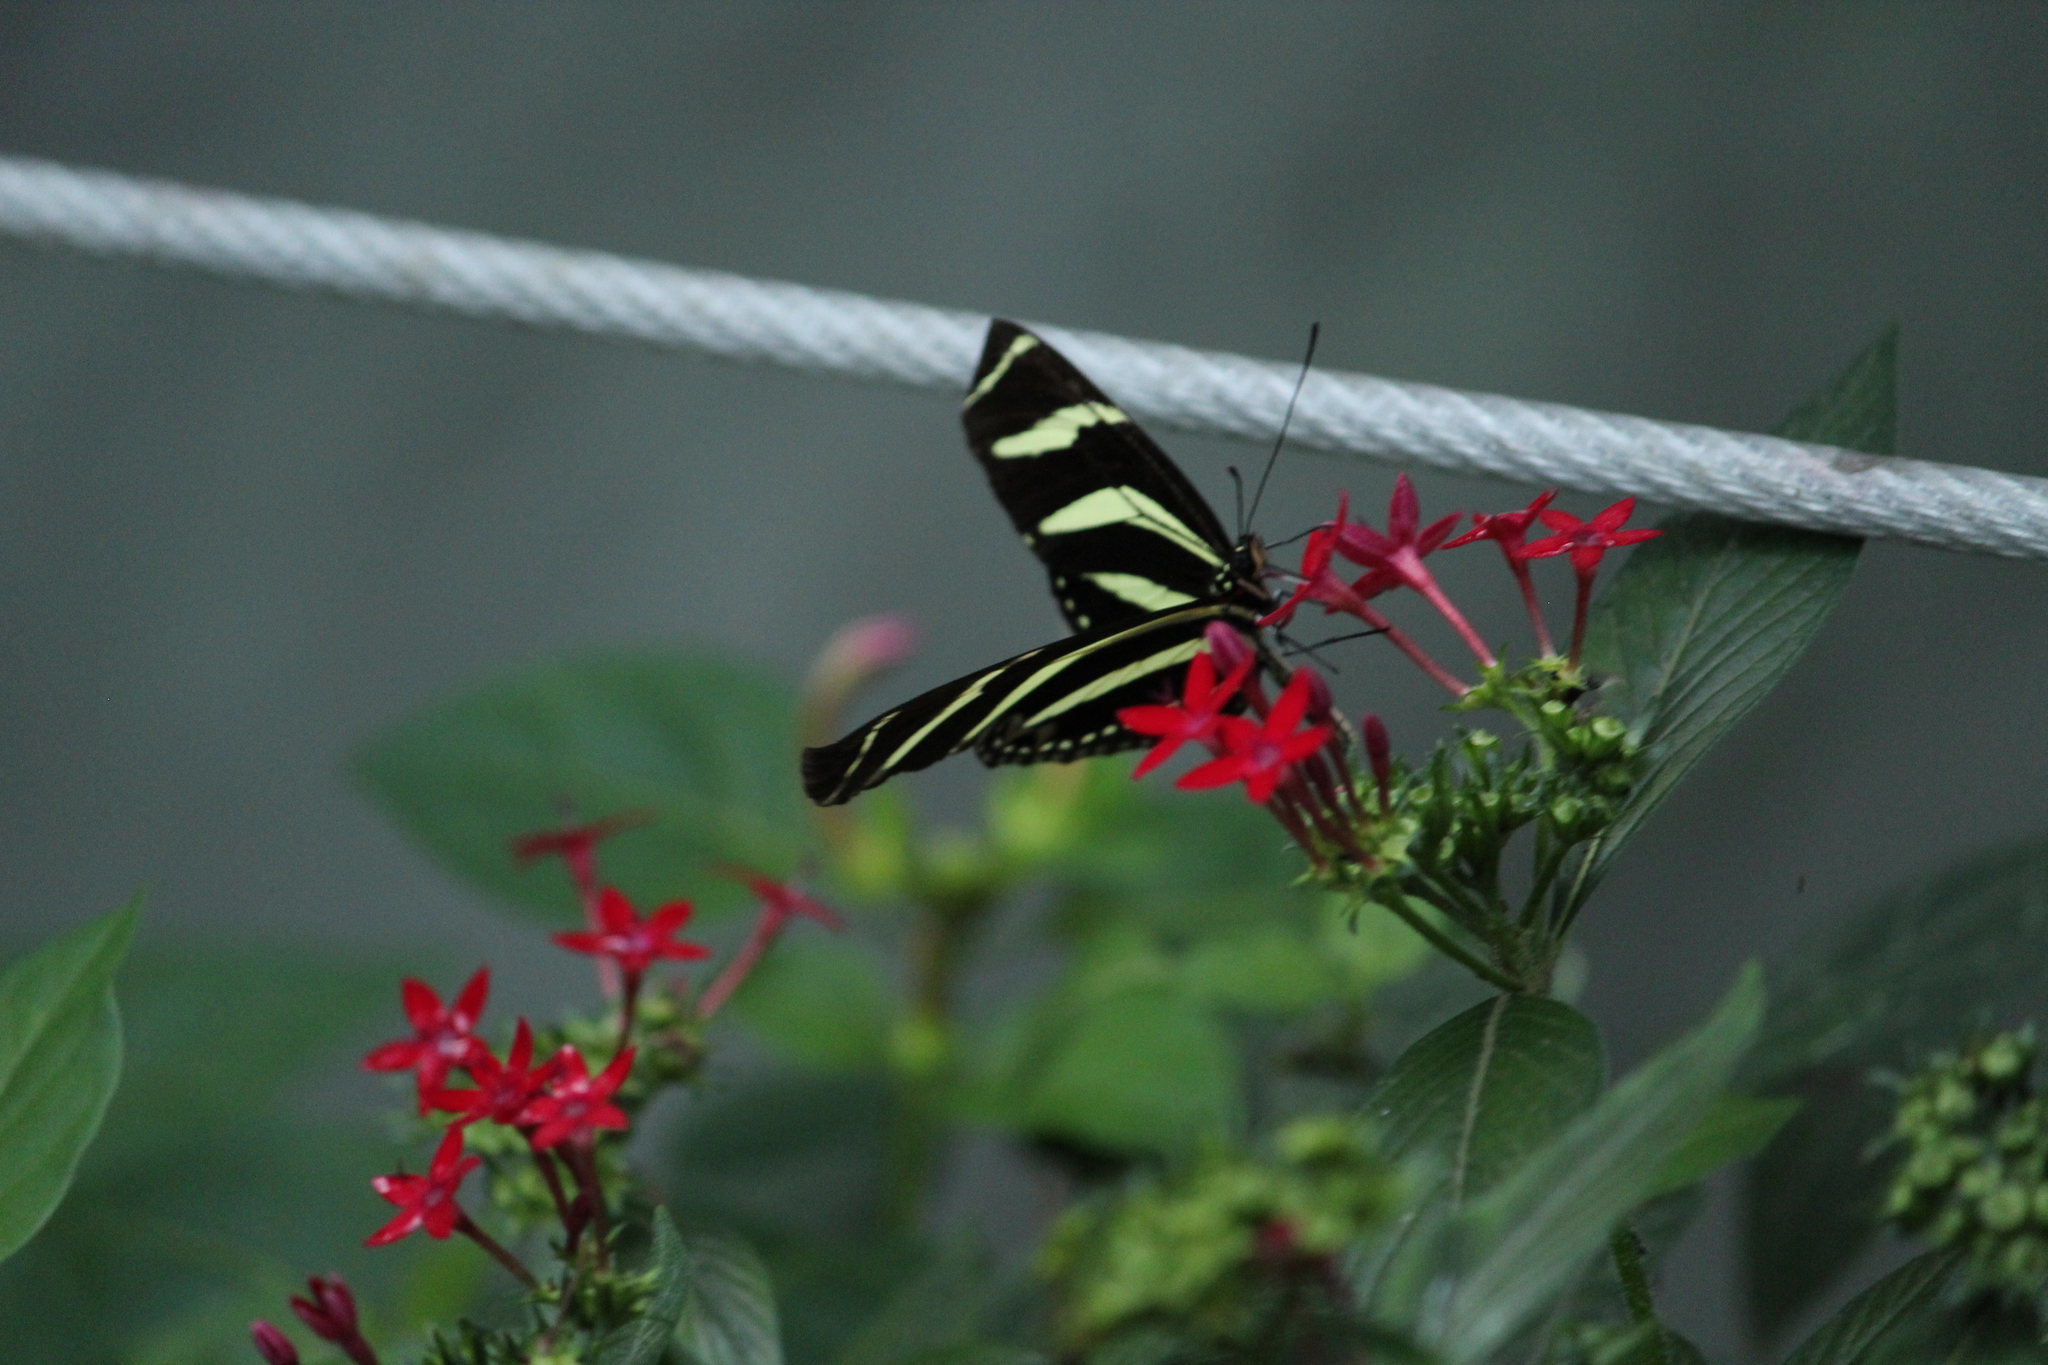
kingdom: Animalia
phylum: Arthropoda
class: Insecta
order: Lepidoptera
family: Nymphalidae
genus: Heliconius
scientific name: Heliconius charithonia
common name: Zebra long wing
